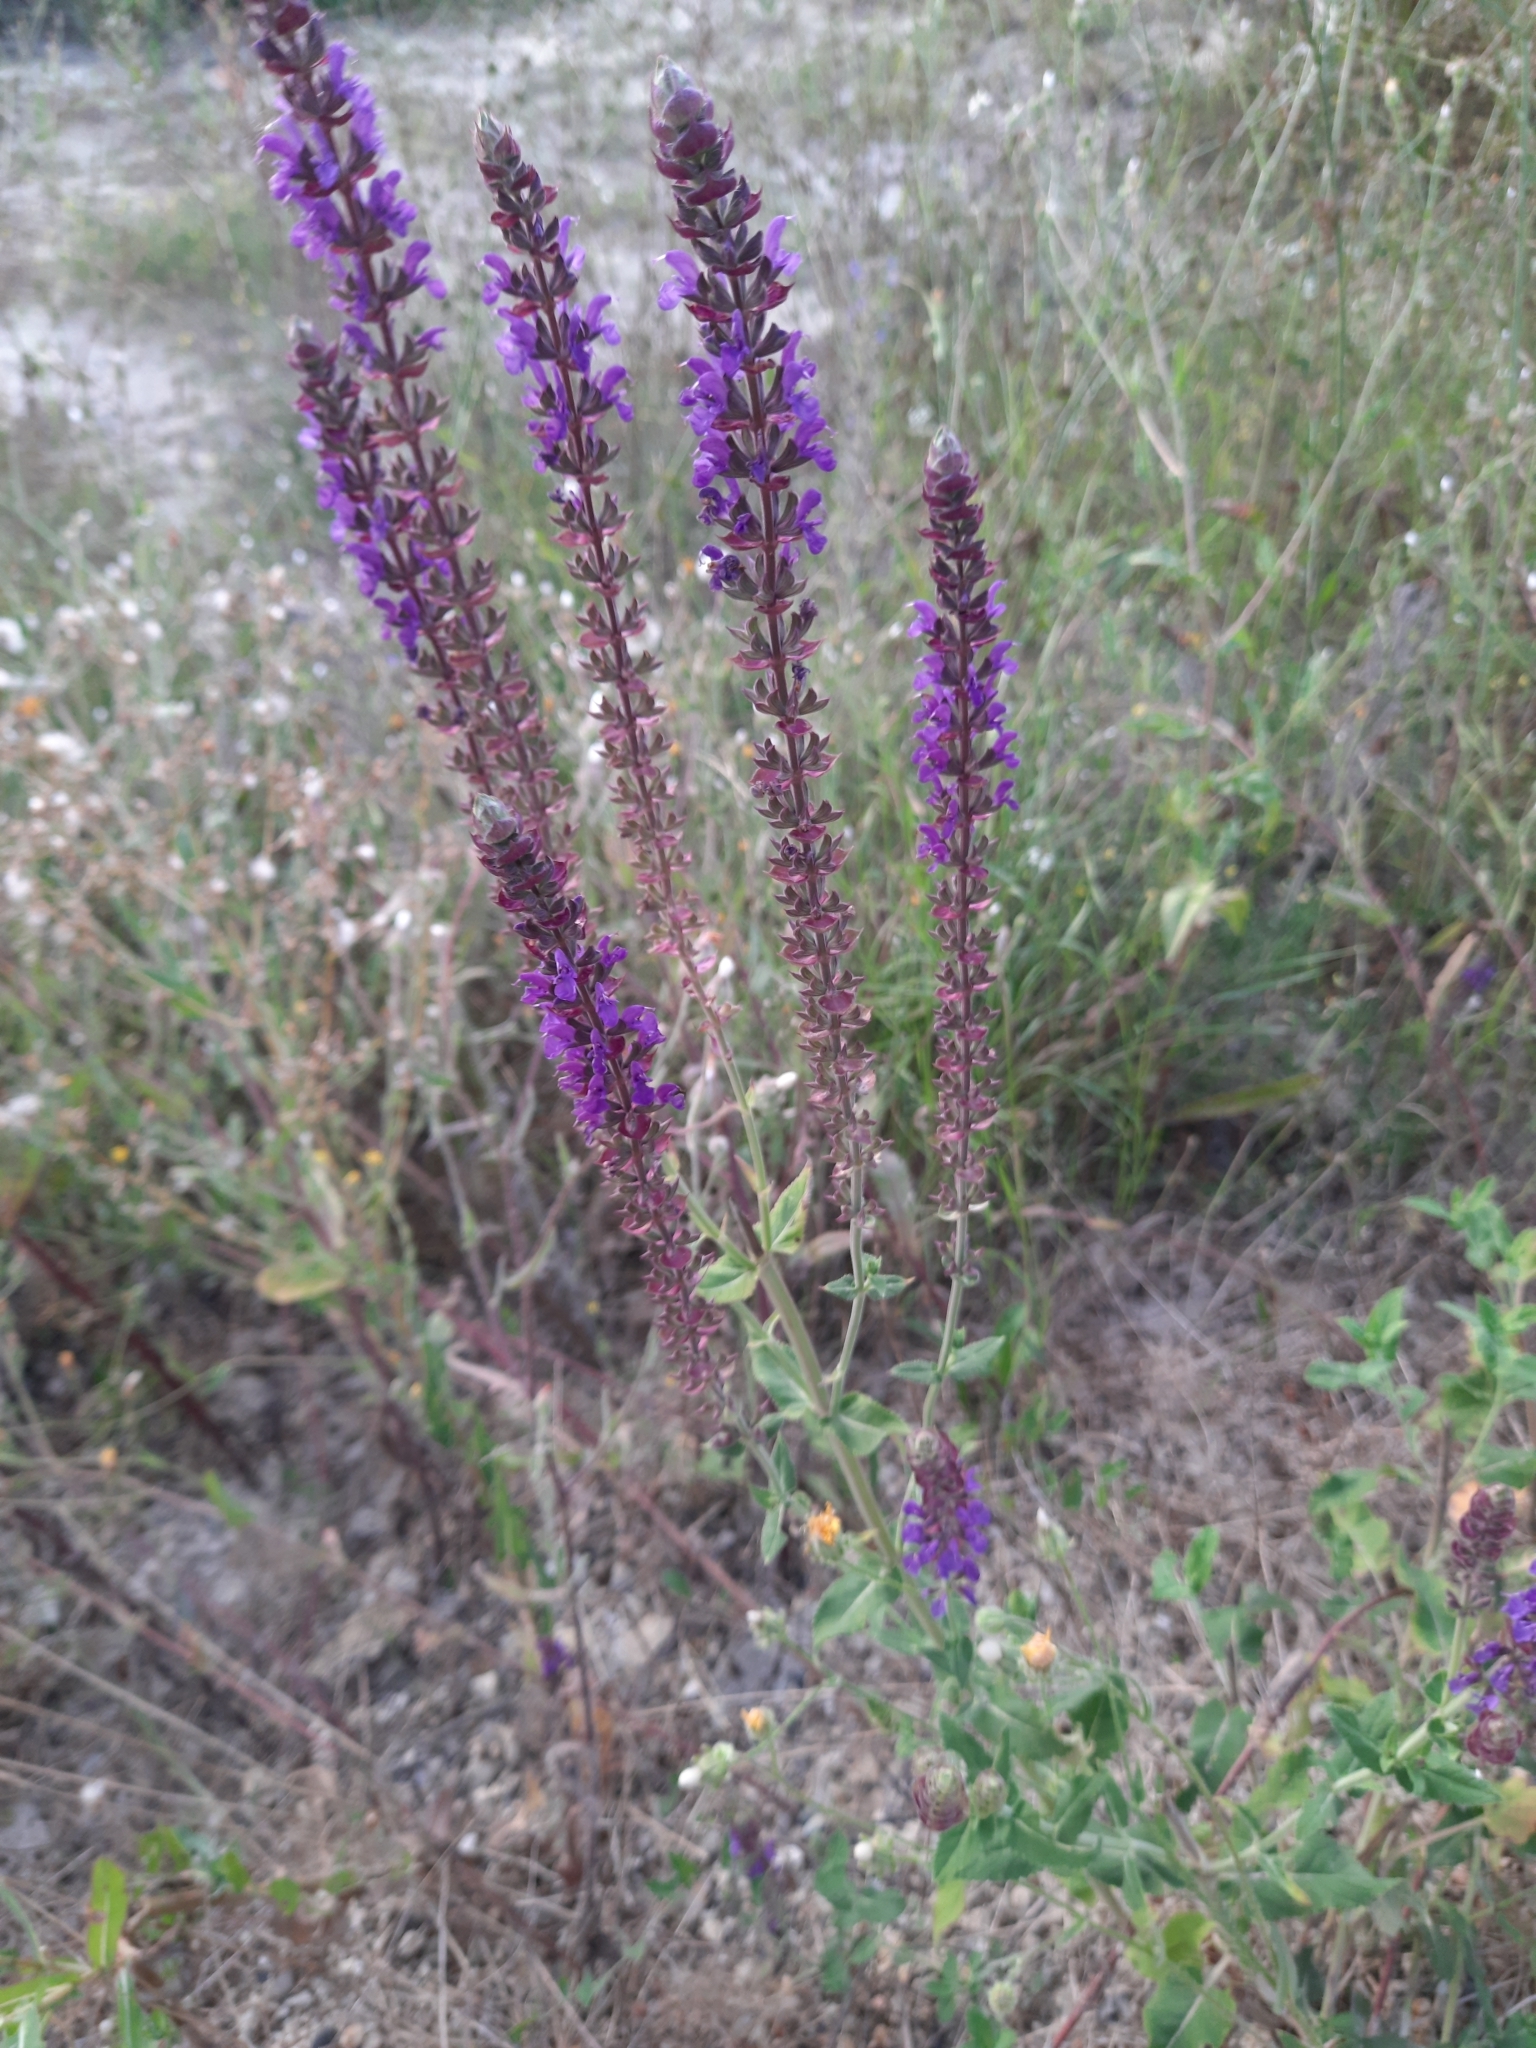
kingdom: Plantae
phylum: Tracheophyta
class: Magnoliopsida
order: Lamiales
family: Lamiaceae
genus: Salvia
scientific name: Salvia nemorosa
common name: Balkan clary
